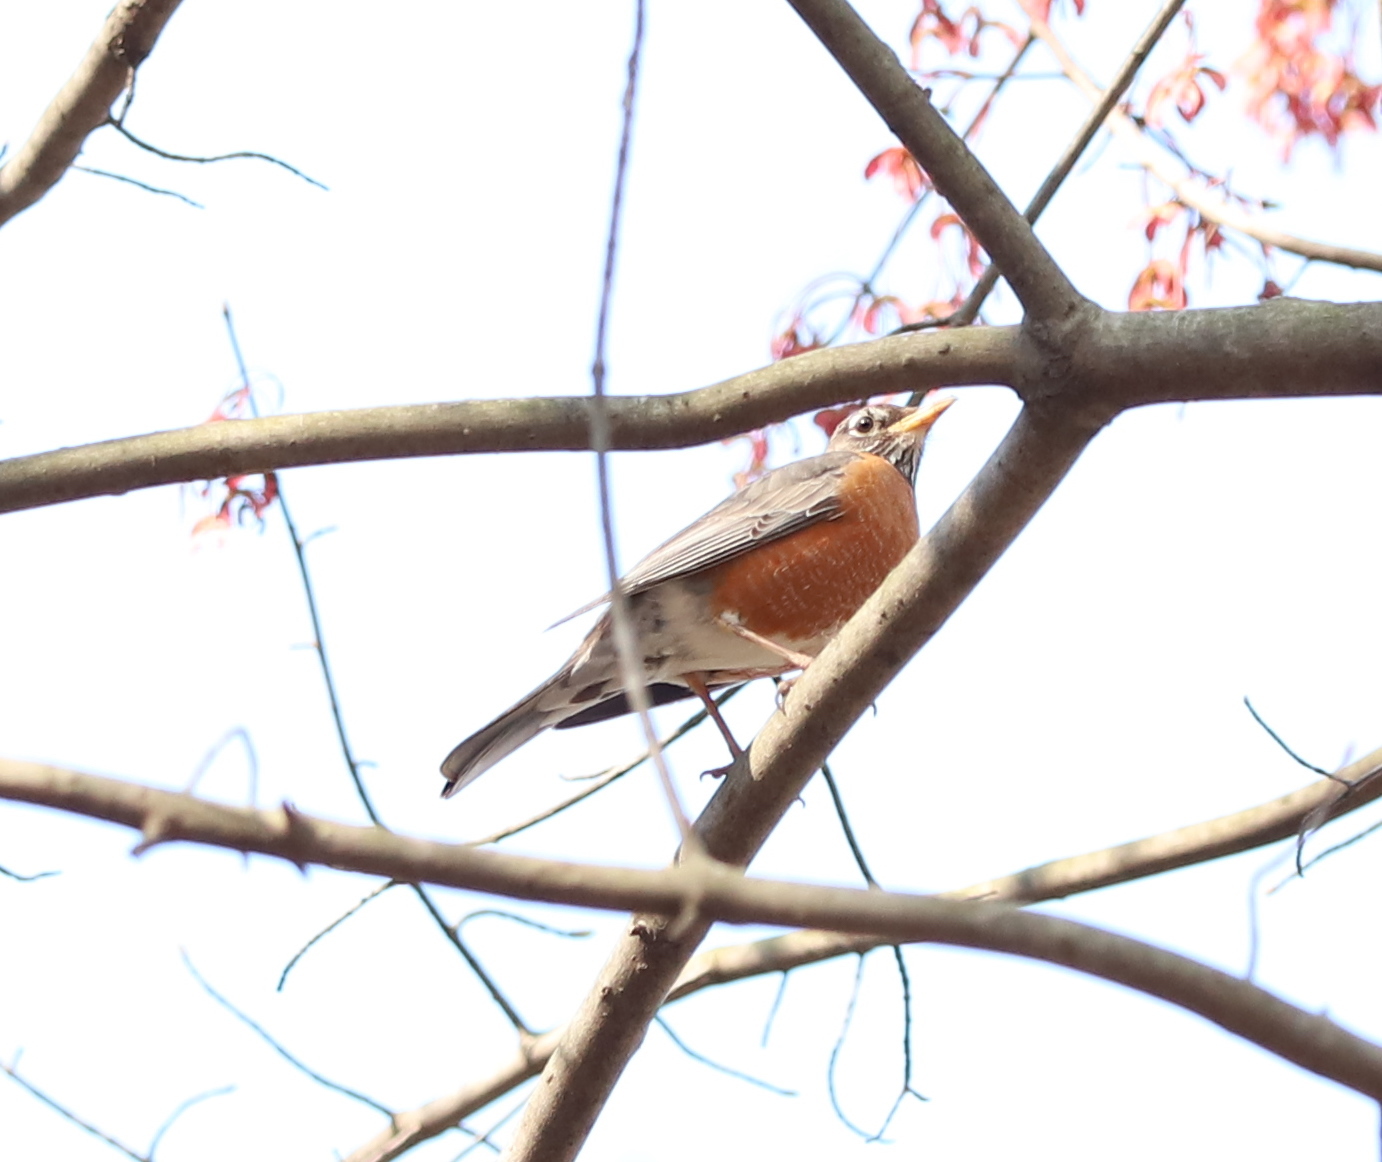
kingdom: Animalia
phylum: Chordata
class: Aves
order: Passeriformes
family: Turdidae
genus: Turdus
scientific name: Turdus migratorius
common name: American robin
